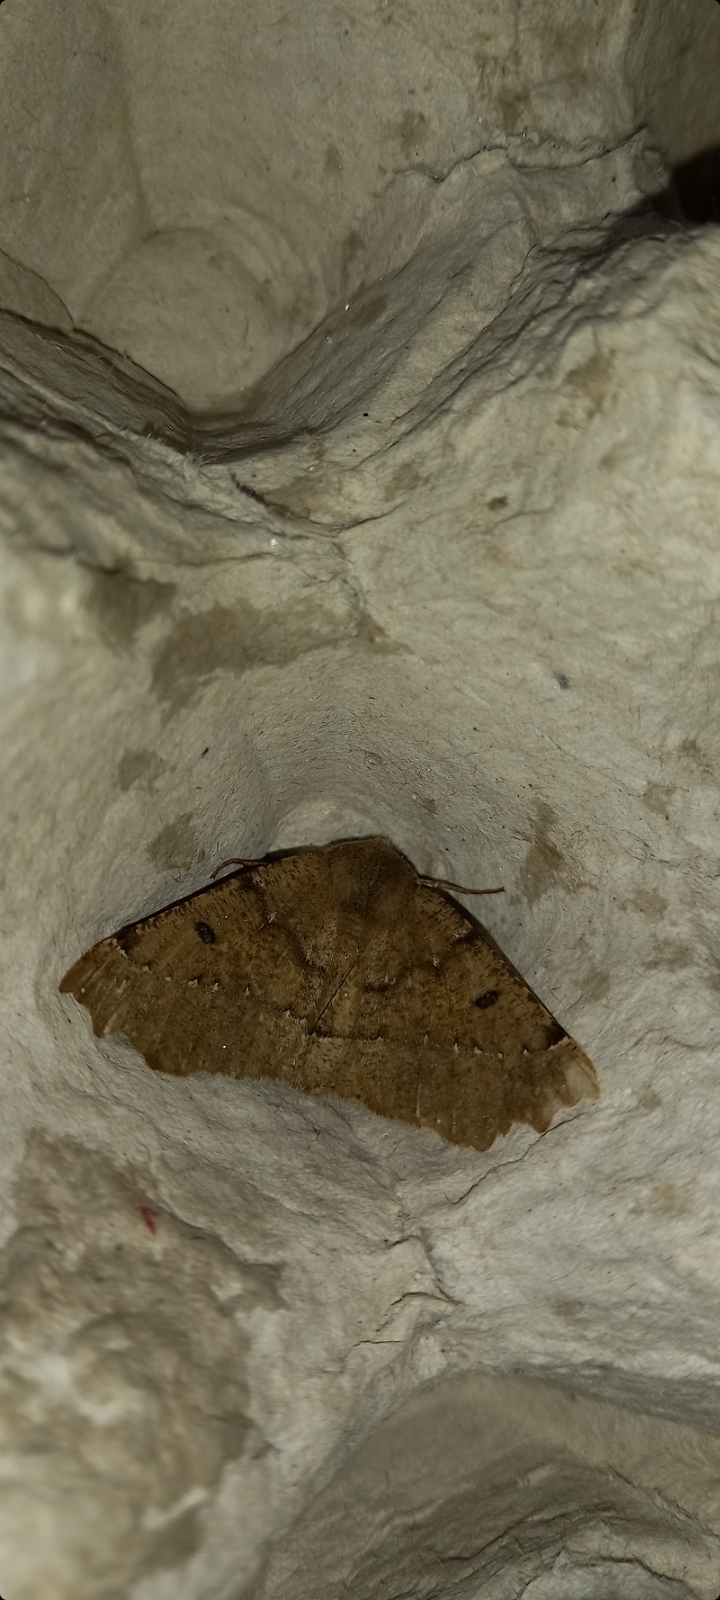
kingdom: Animalia
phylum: Arthropoda
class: Insecta
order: Lepidoptera
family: Geometridae
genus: Odontopera
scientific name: Odontopera bidentata
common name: Scalloped hazel
